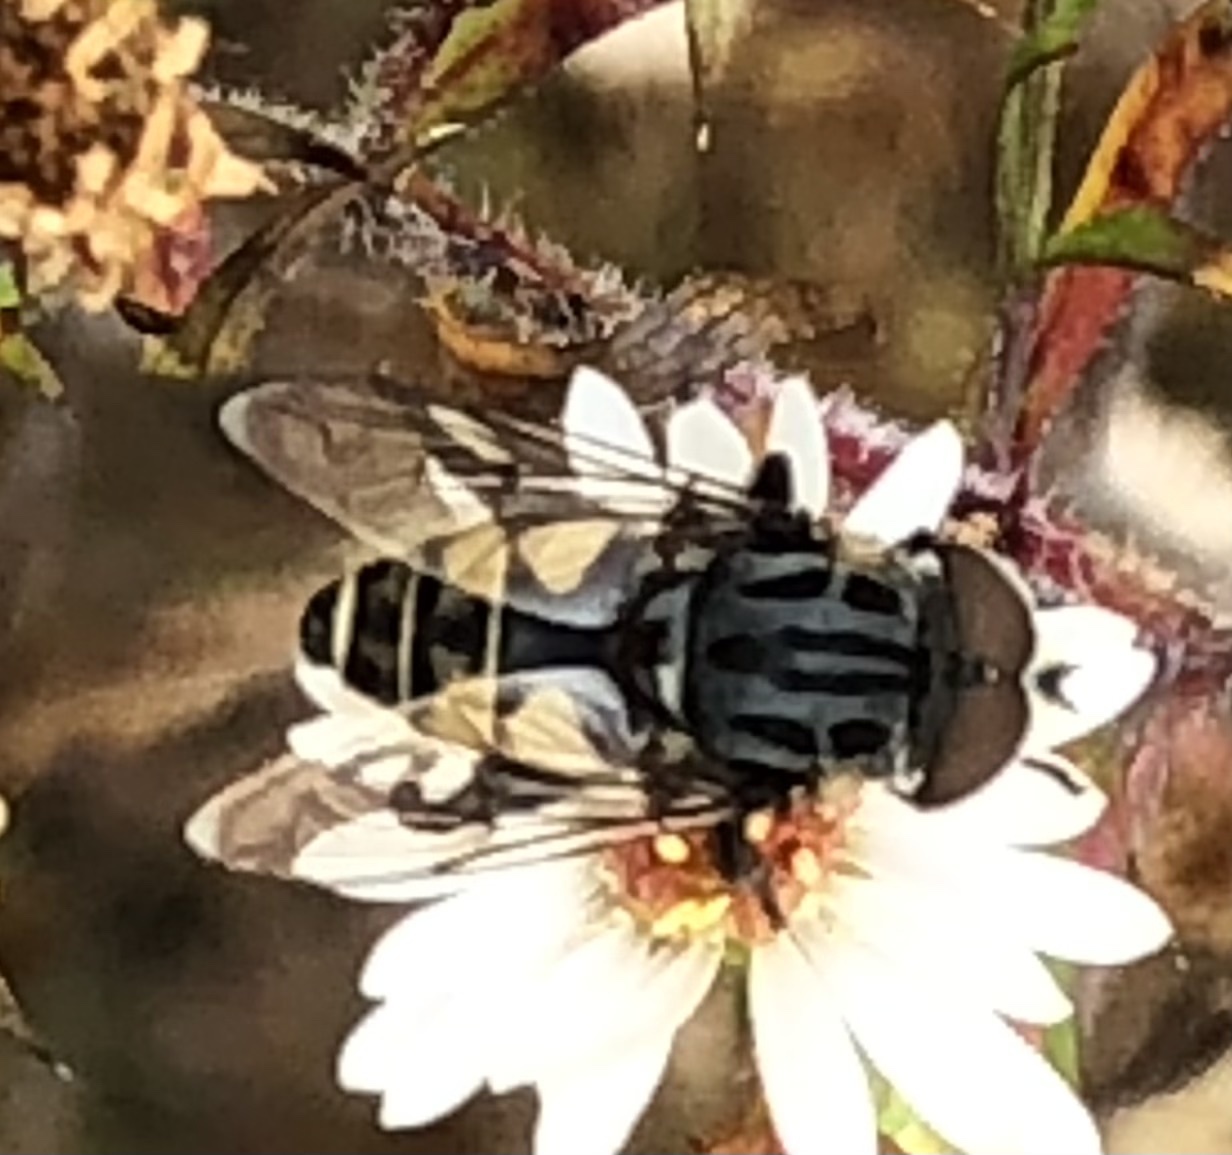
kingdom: Animalia
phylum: Arthropoda
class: Insecta
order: Diptera
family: Syrphidae
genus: Palpada
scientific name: Palpada furcata
